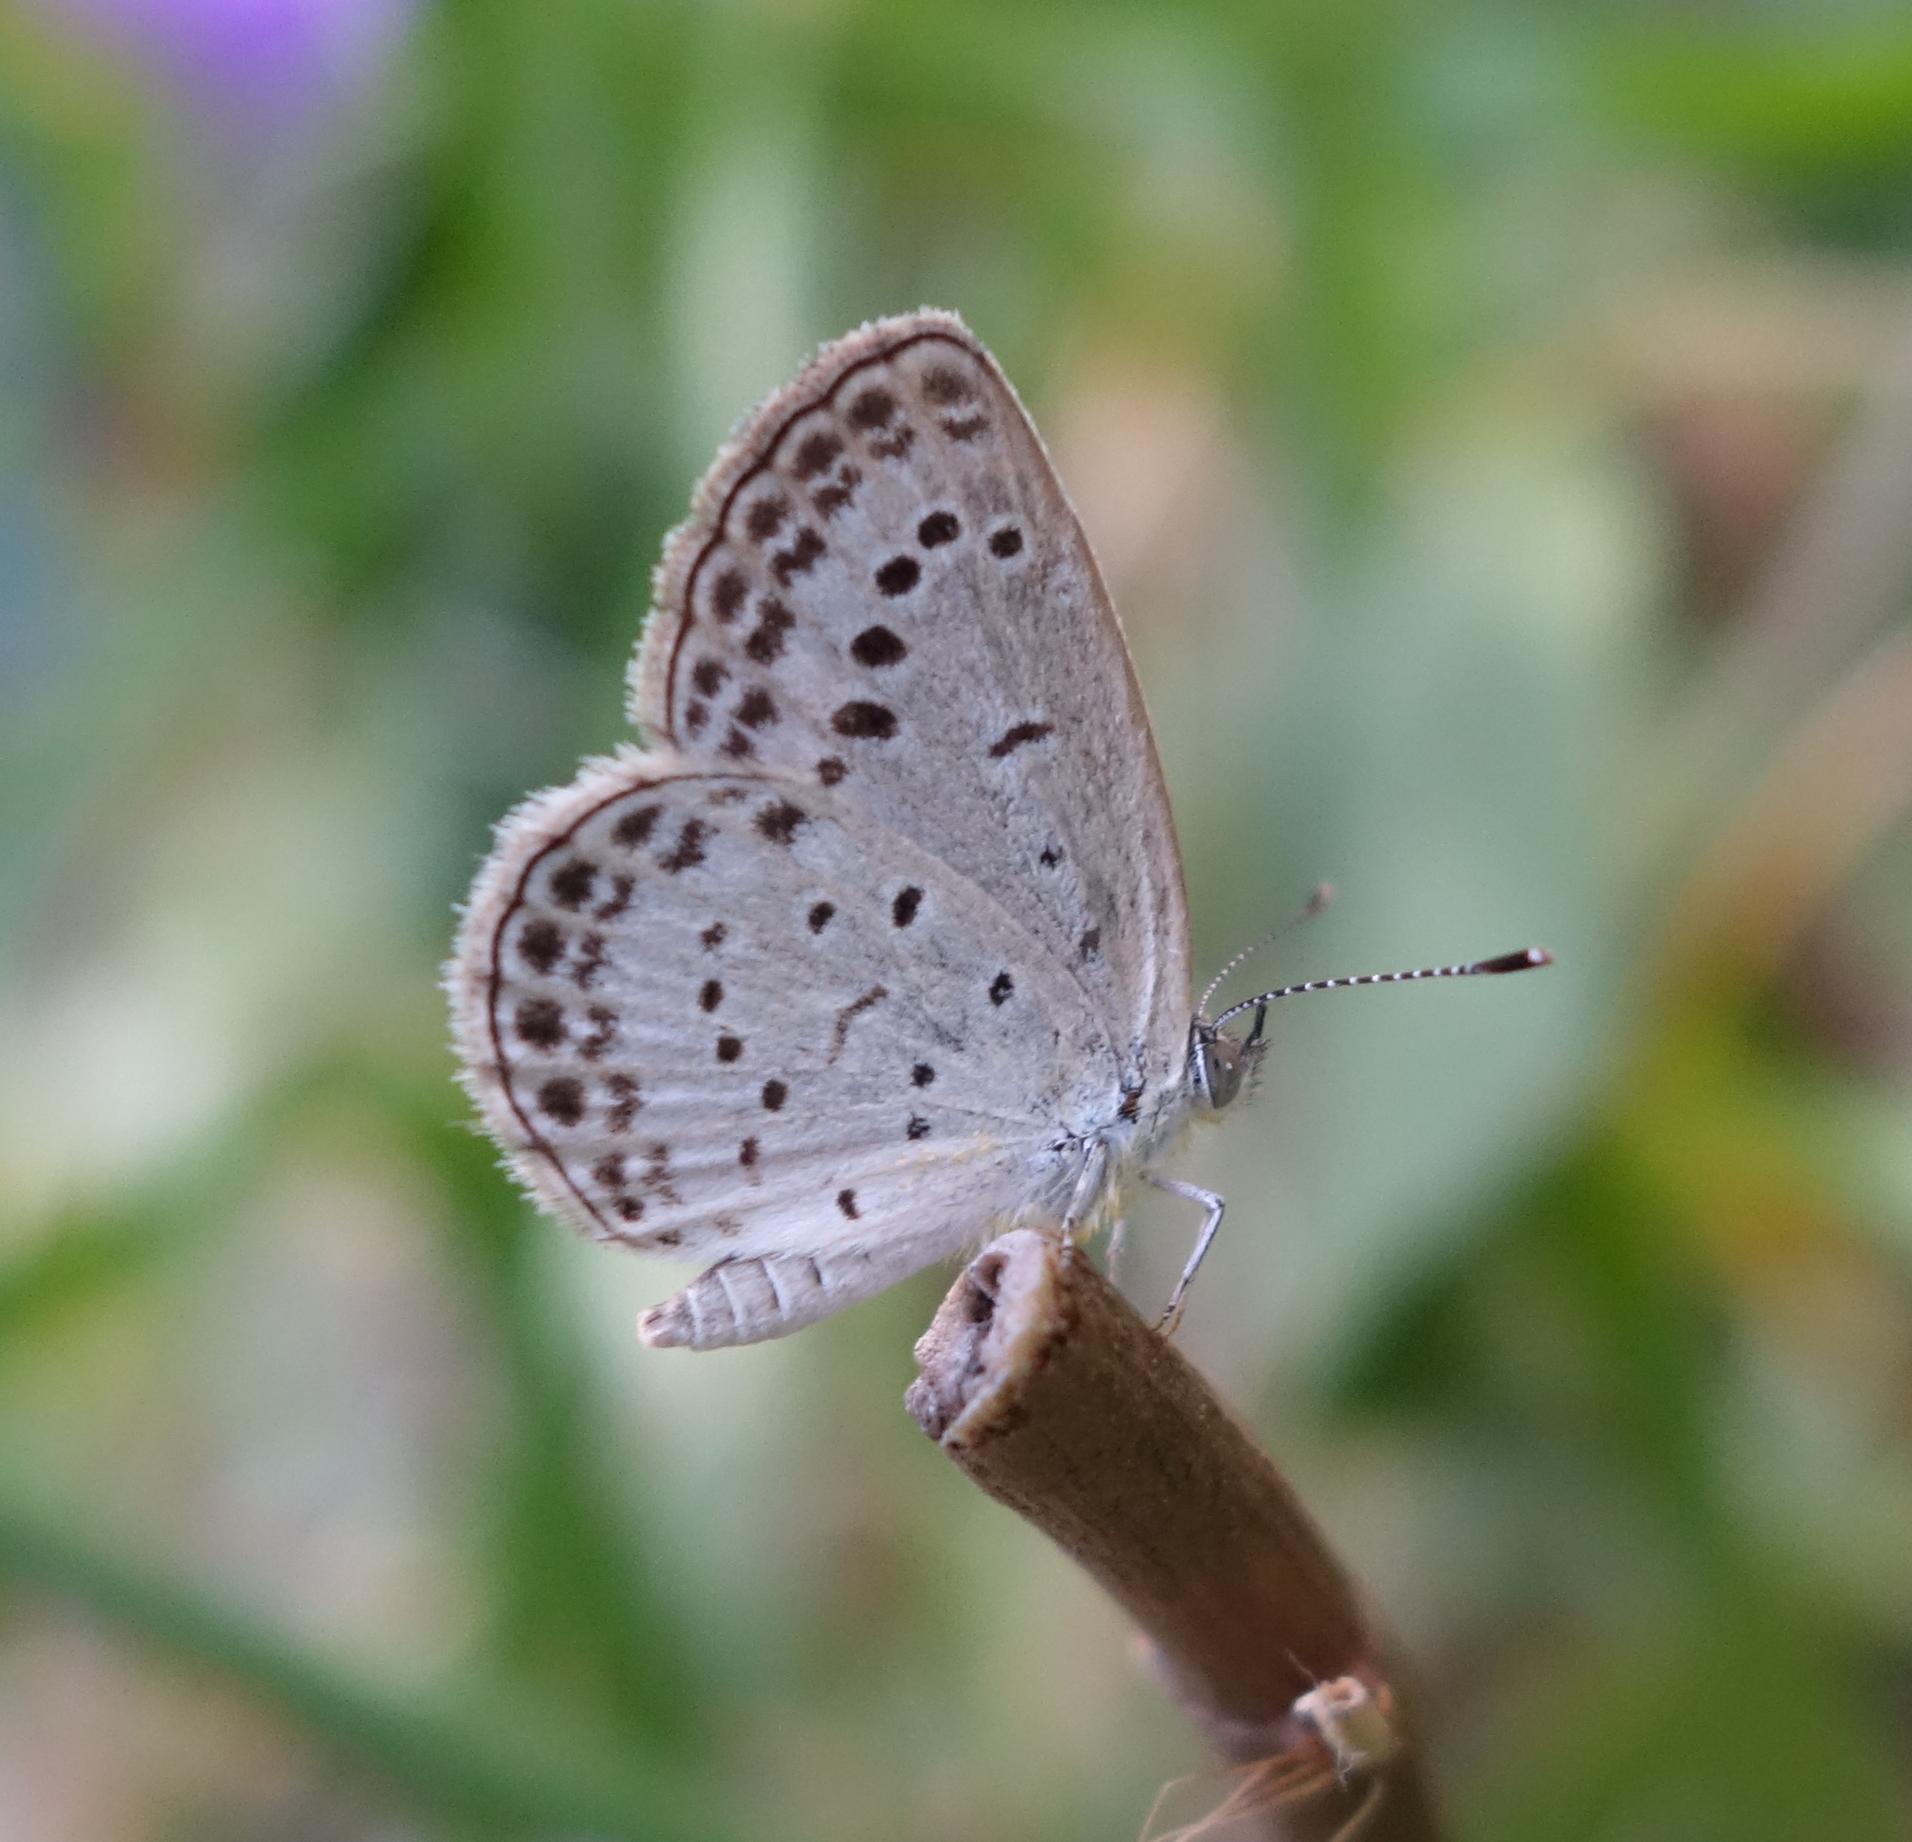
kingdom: Animalia
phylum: Arthropoda
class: Insecta
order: Lepidoptera
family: Lycaenidae
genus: Pseudozizeeria
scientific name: Pseudozizeeria maha
